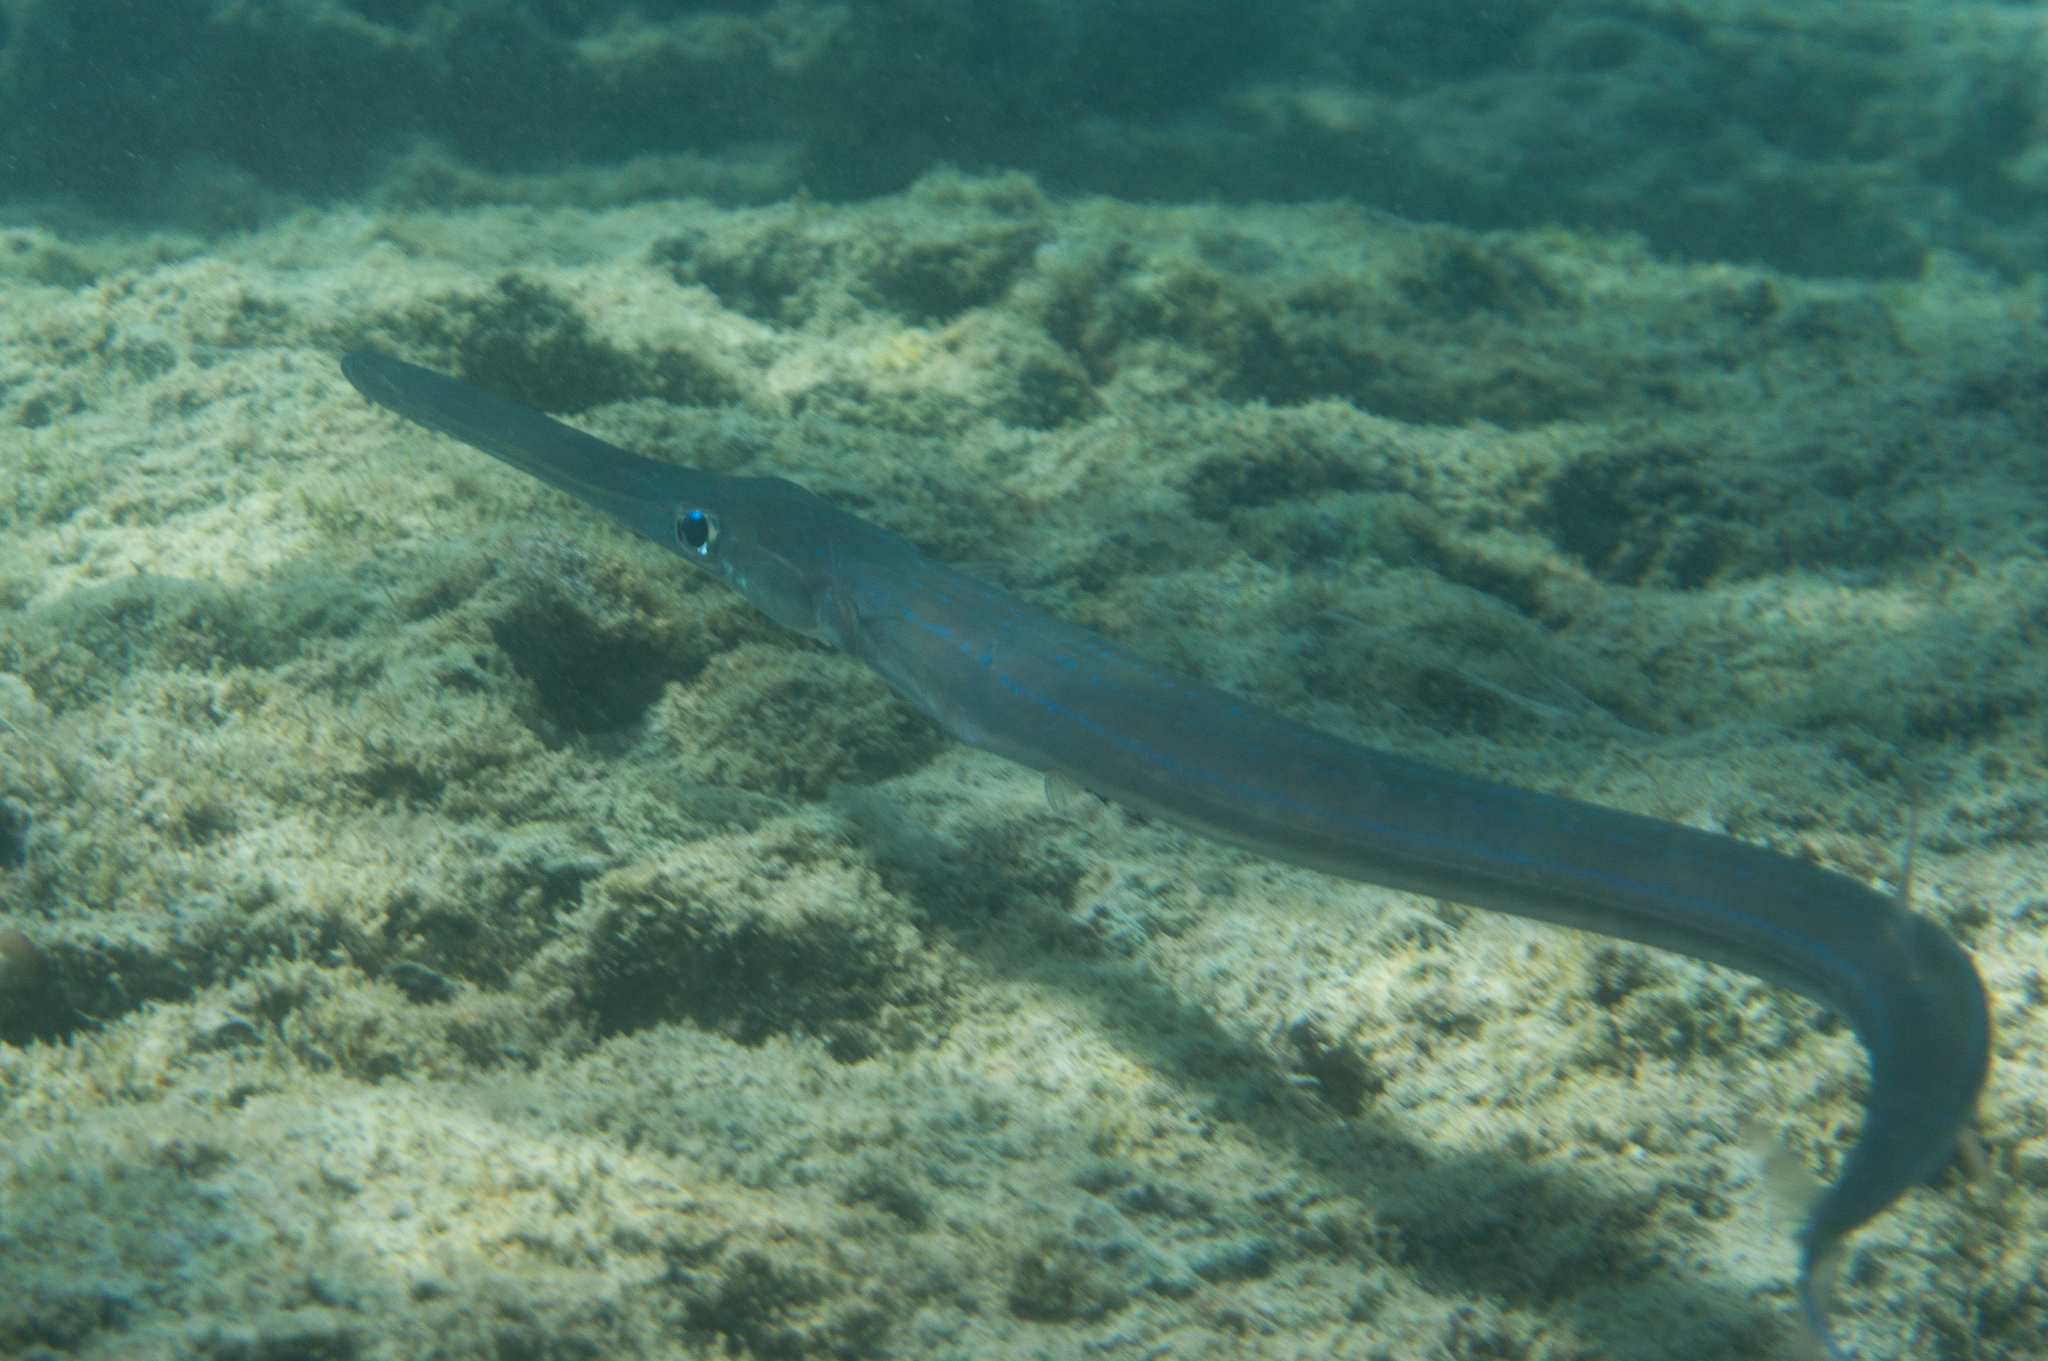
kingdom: Animalia
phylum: Chordata
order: Syngnathiformes
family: Fistulariidae
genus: Fistularia
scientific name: Fistularia commersonii
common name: Bluespotted cornetfish
